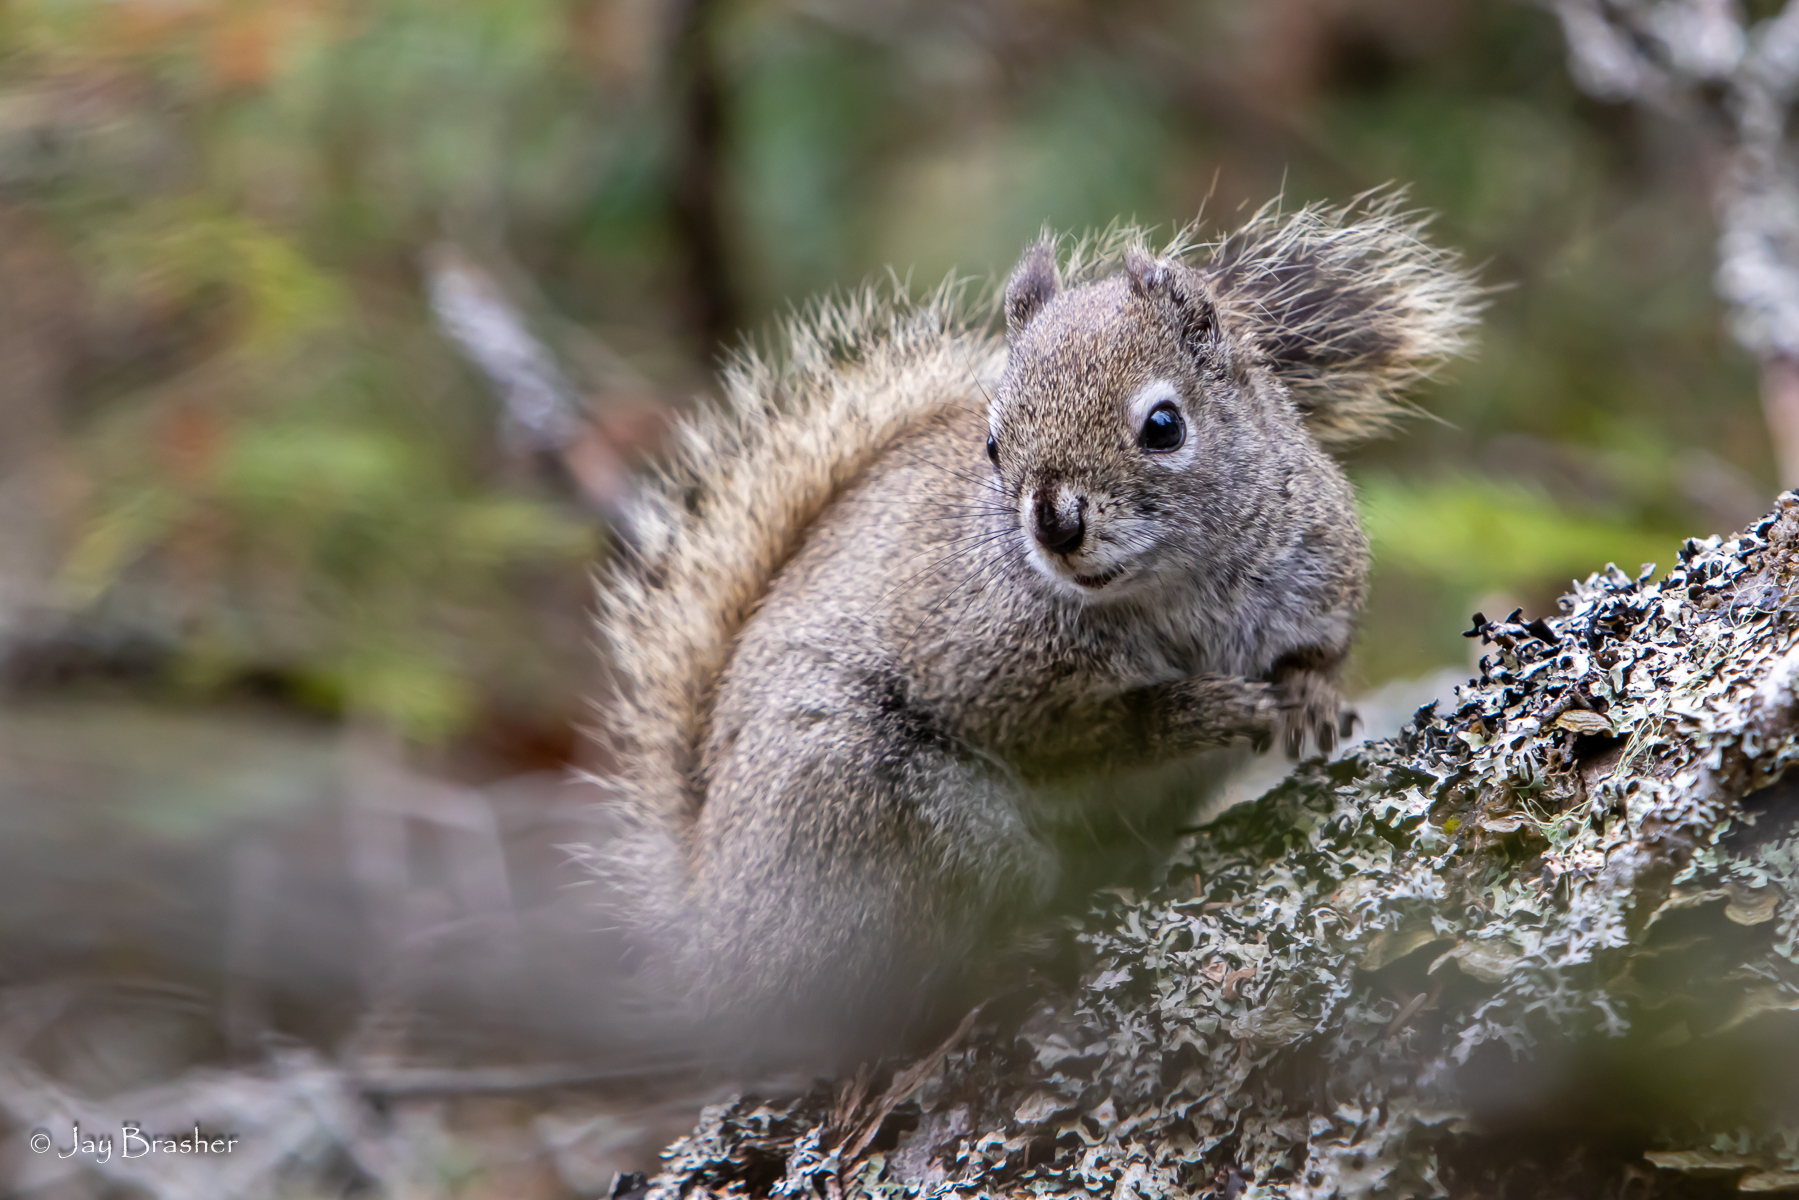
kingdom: Animalia
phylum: Chordata
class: Mammalia
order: Rodentia
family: Sciuridae
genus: Tamiasciurus
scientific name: Tamiasciurus hudsonicus
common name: Red squirrel
